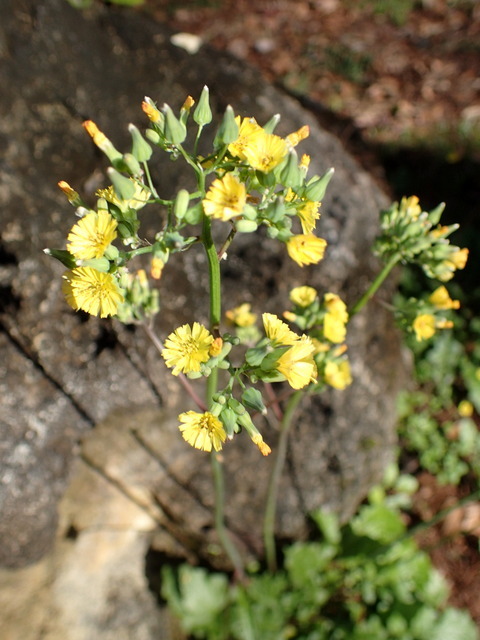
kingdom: Plantae
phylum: Tracheophyta
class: Magnoliopsida
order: Asterales
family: Asteraceae
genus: Youngia
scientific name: Youngia japonica
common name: Oriental false hawksbeard
